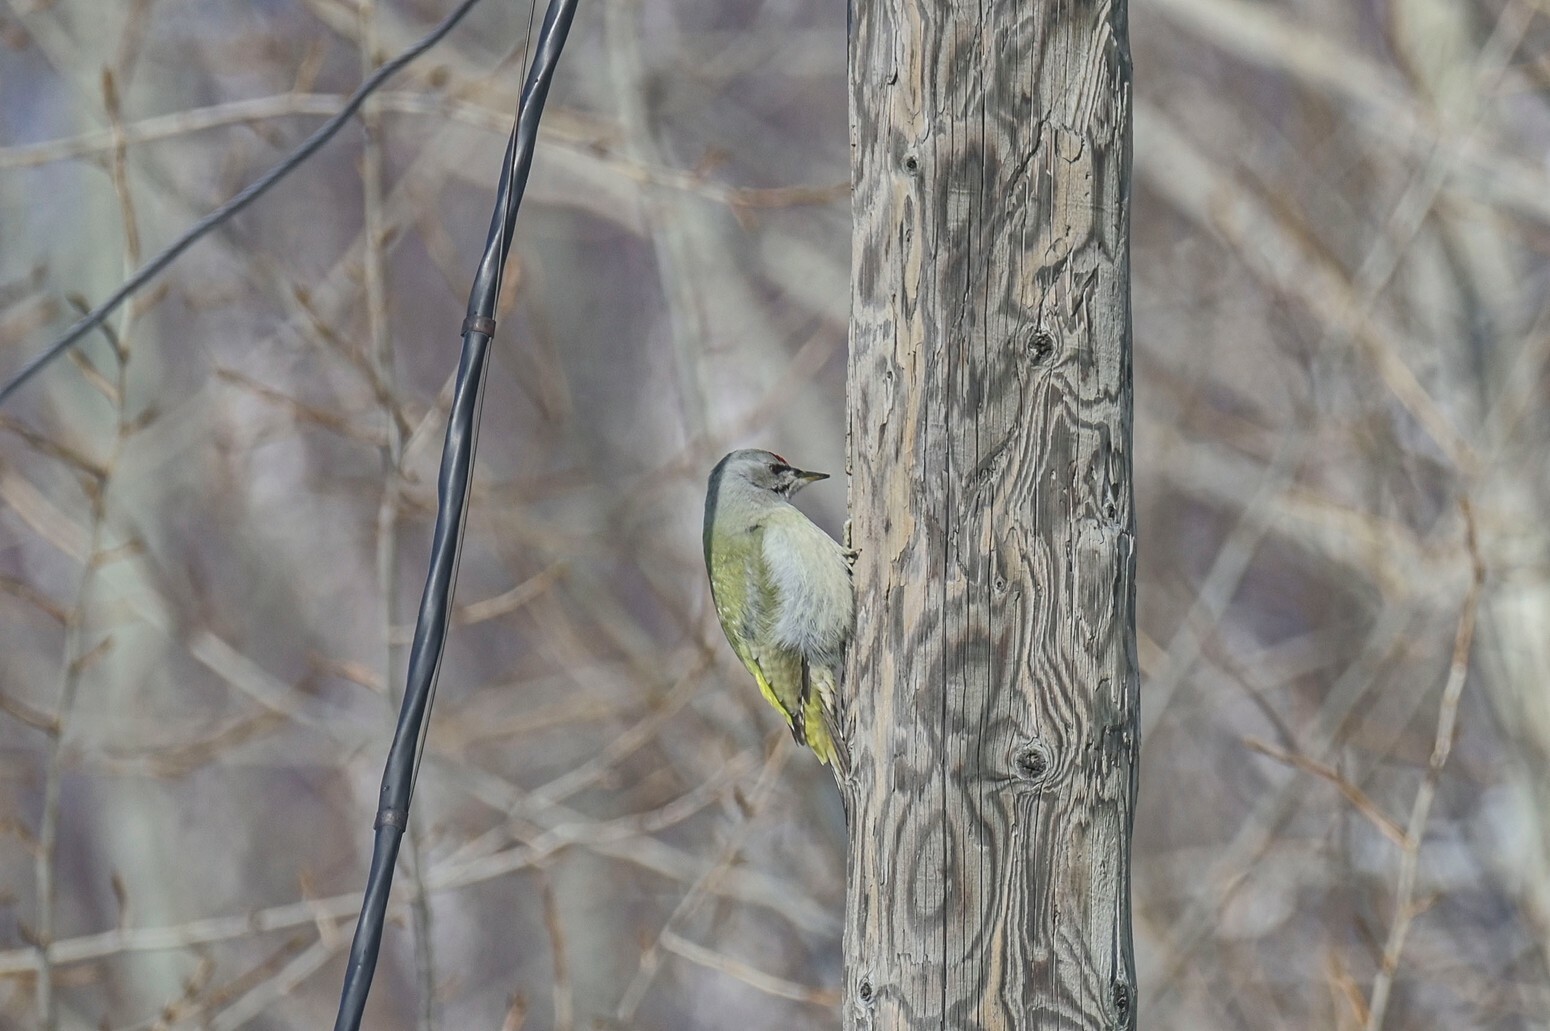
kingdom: Animalia
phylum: Chordata
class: Aves
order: Piciformes
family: Picidae
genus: Picus
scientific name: Picus canus
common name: Grey-headed woodpecker
